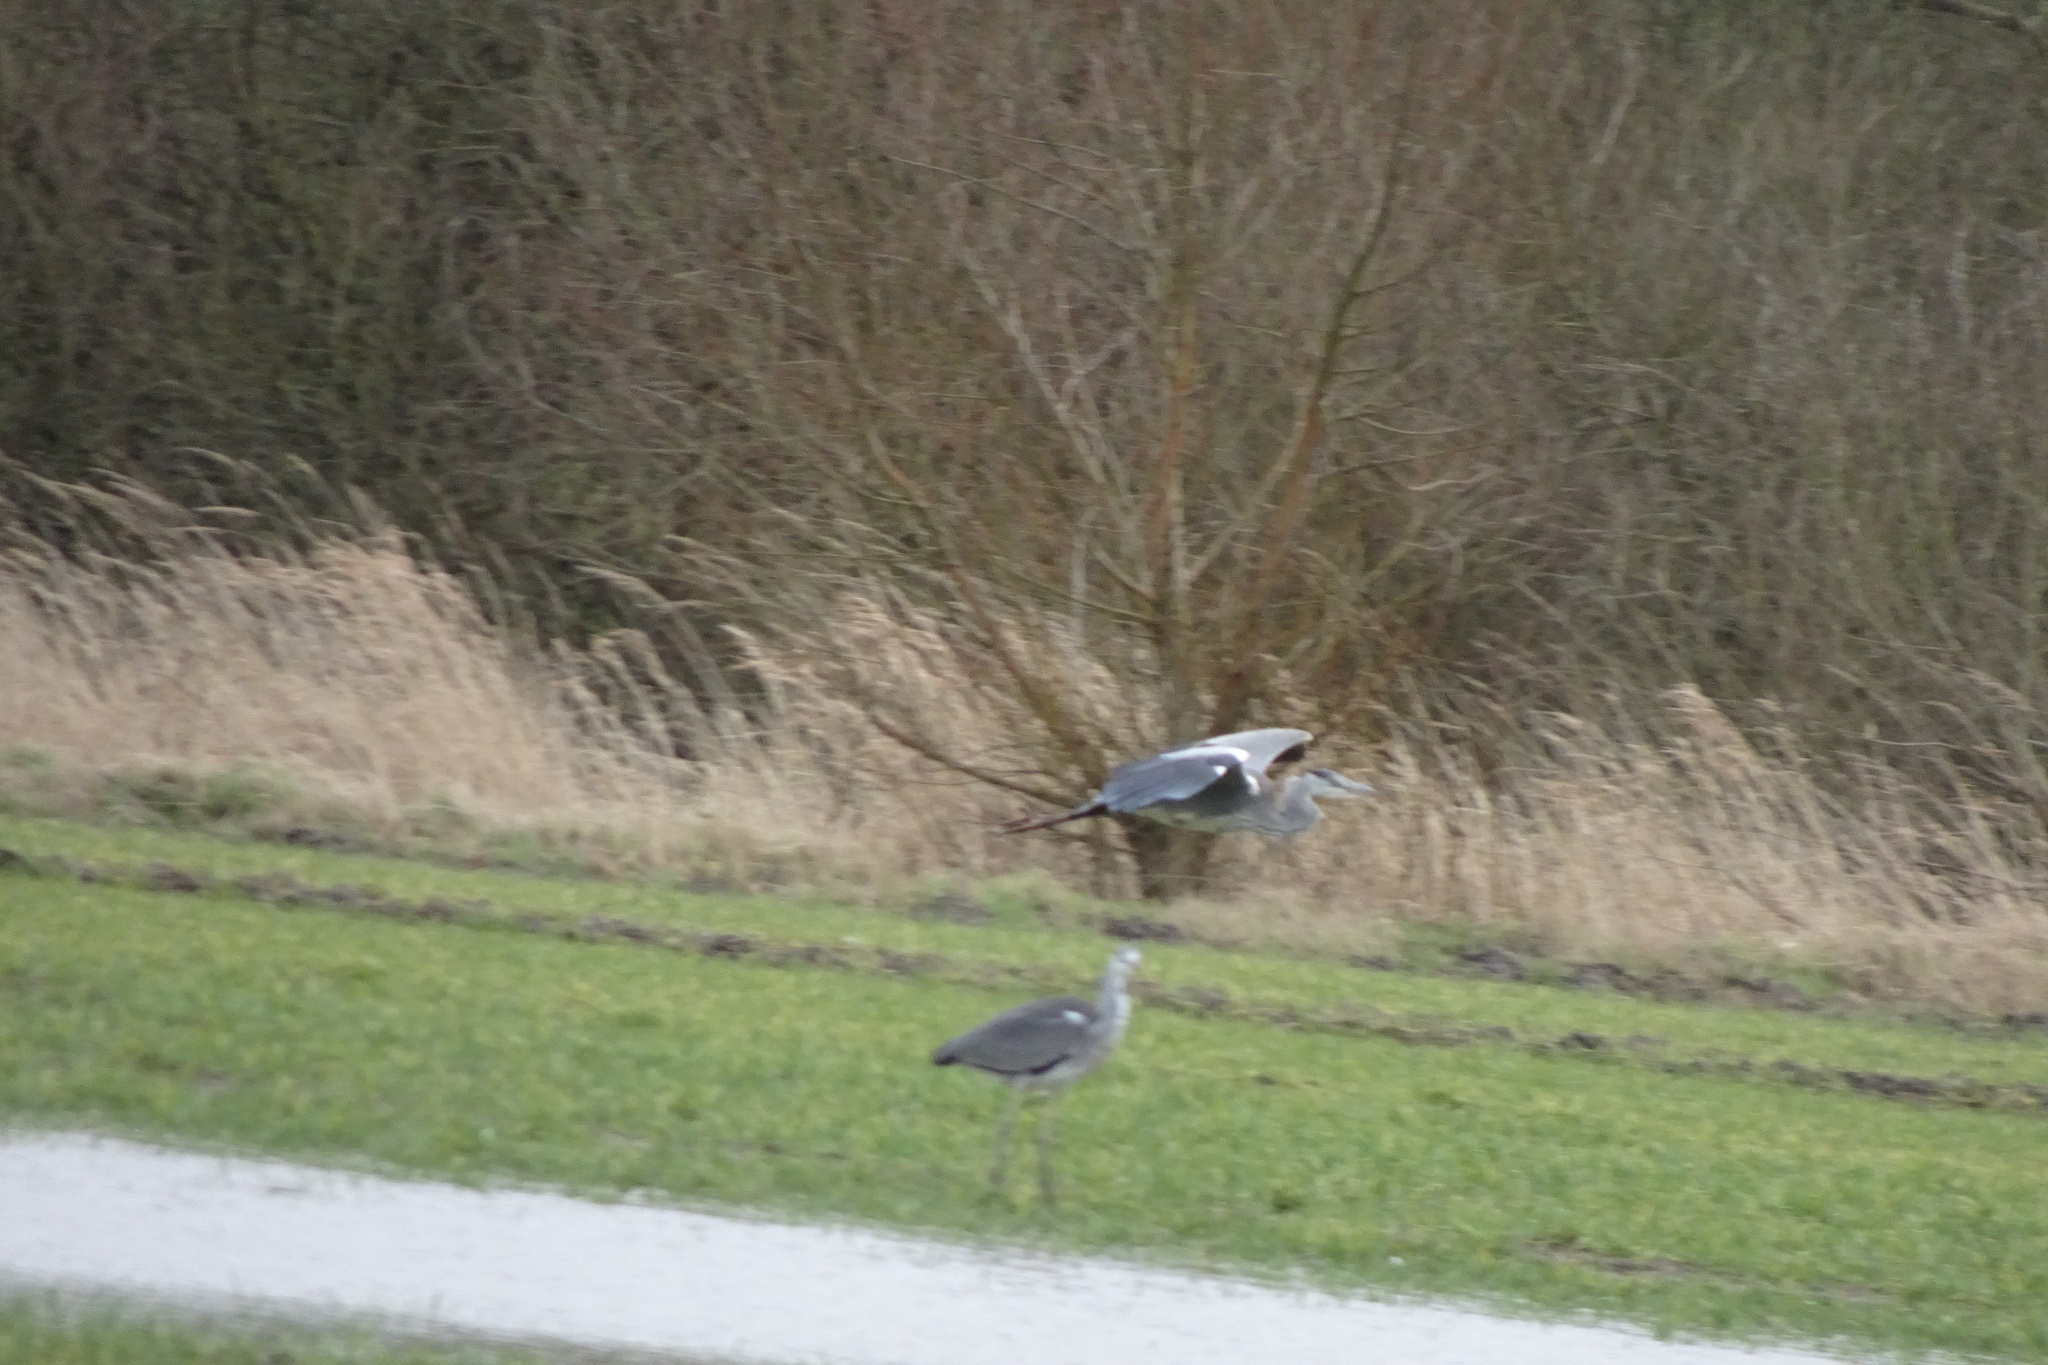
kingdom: Animalia
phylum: Chordata
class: Aves
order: Pelecaniformes
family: Ardeidae
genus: Ardea
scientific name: Ardea cinerea
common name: Grey heron
